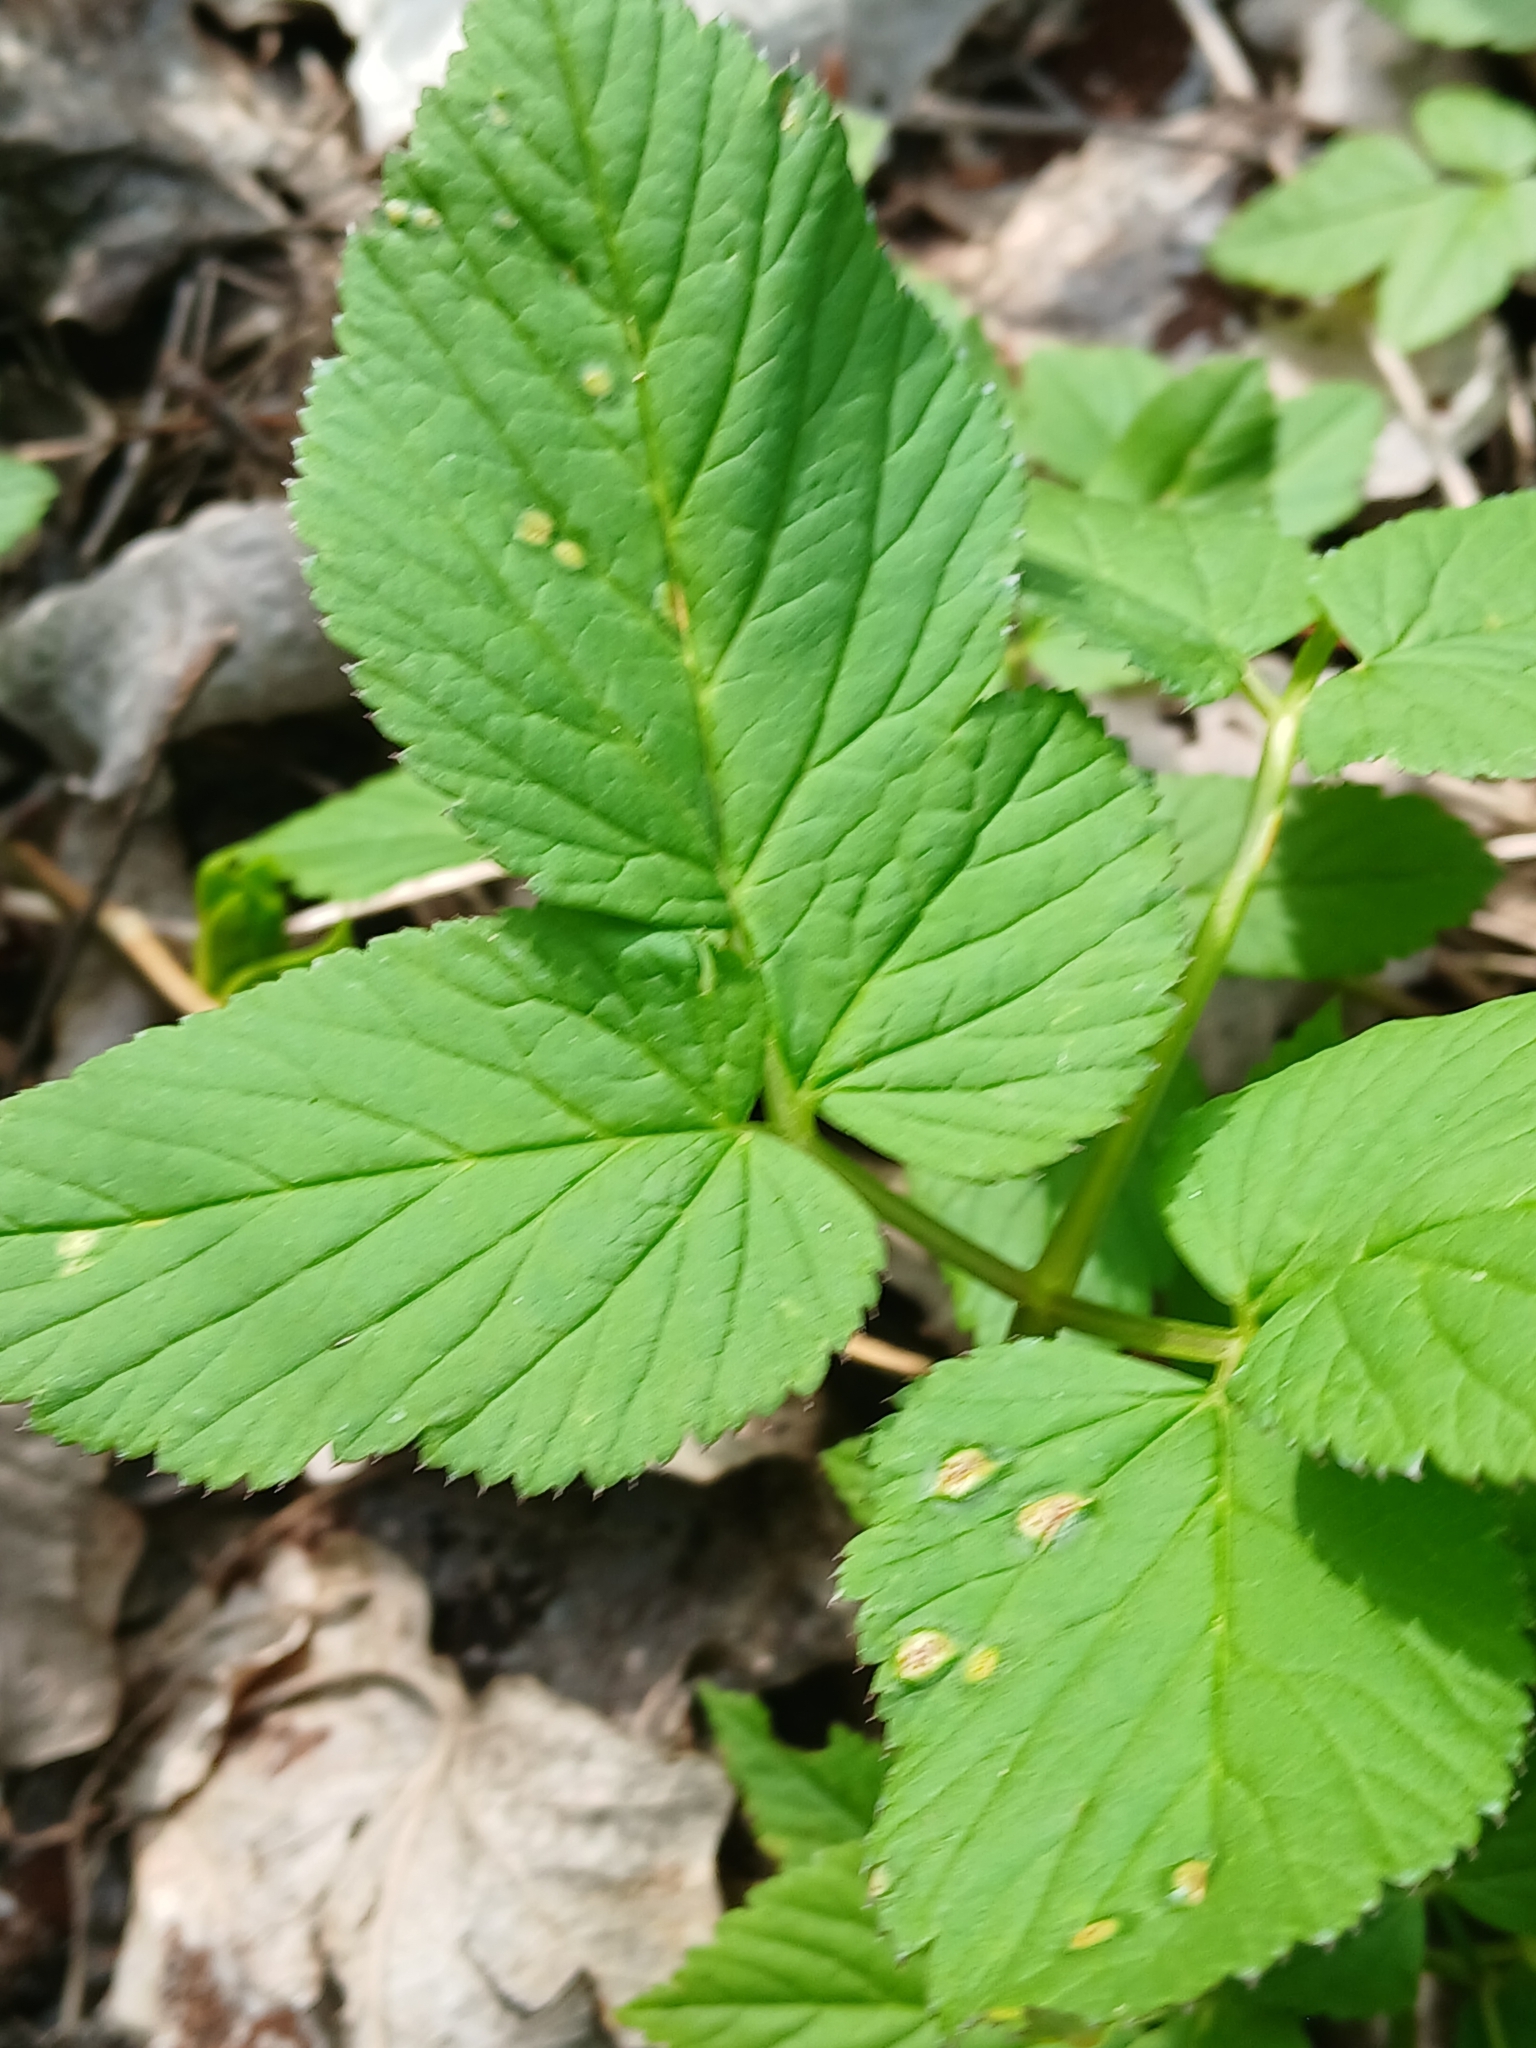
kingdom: Fungi
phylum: Basidiomycota
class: Pucciniomycetes
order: Pucciniales
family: Pucciniaceae
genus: Puccinia
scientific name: Puccinia aegopodii
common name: Ground elder rust
